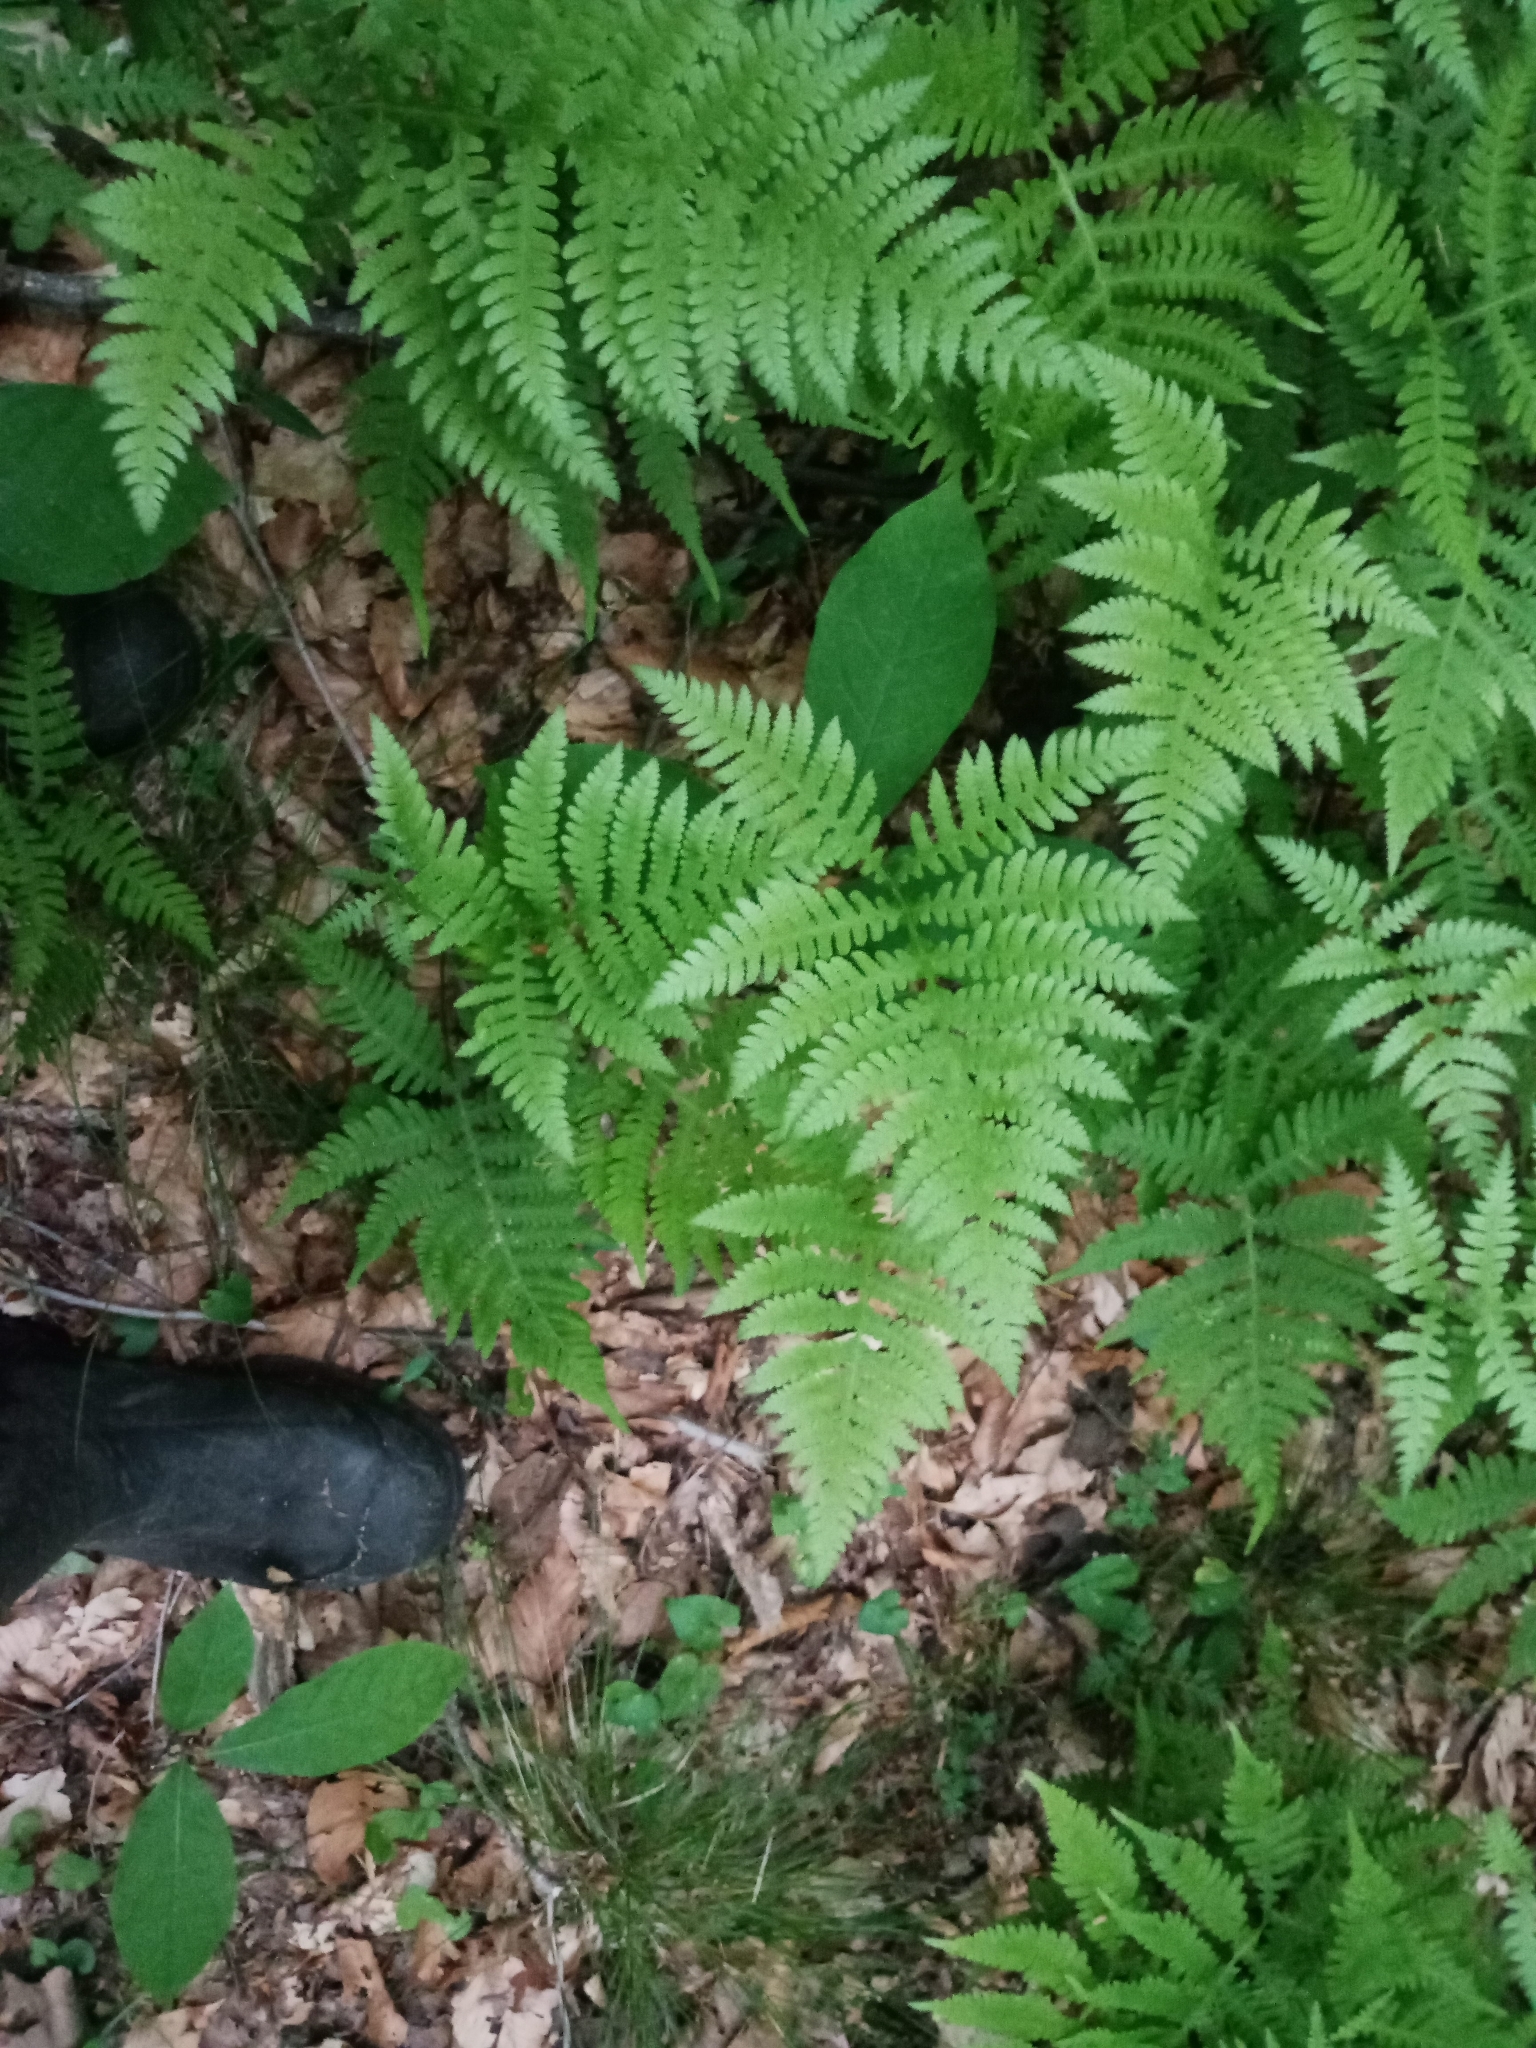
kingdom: Plantae
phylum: Tracheophyta
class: Polypodiopsida
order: Polypodiales
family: Thelypteridaceae
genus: Phegopteris
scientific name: Phegopteris hexagonoptera
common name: Broad beech fern
